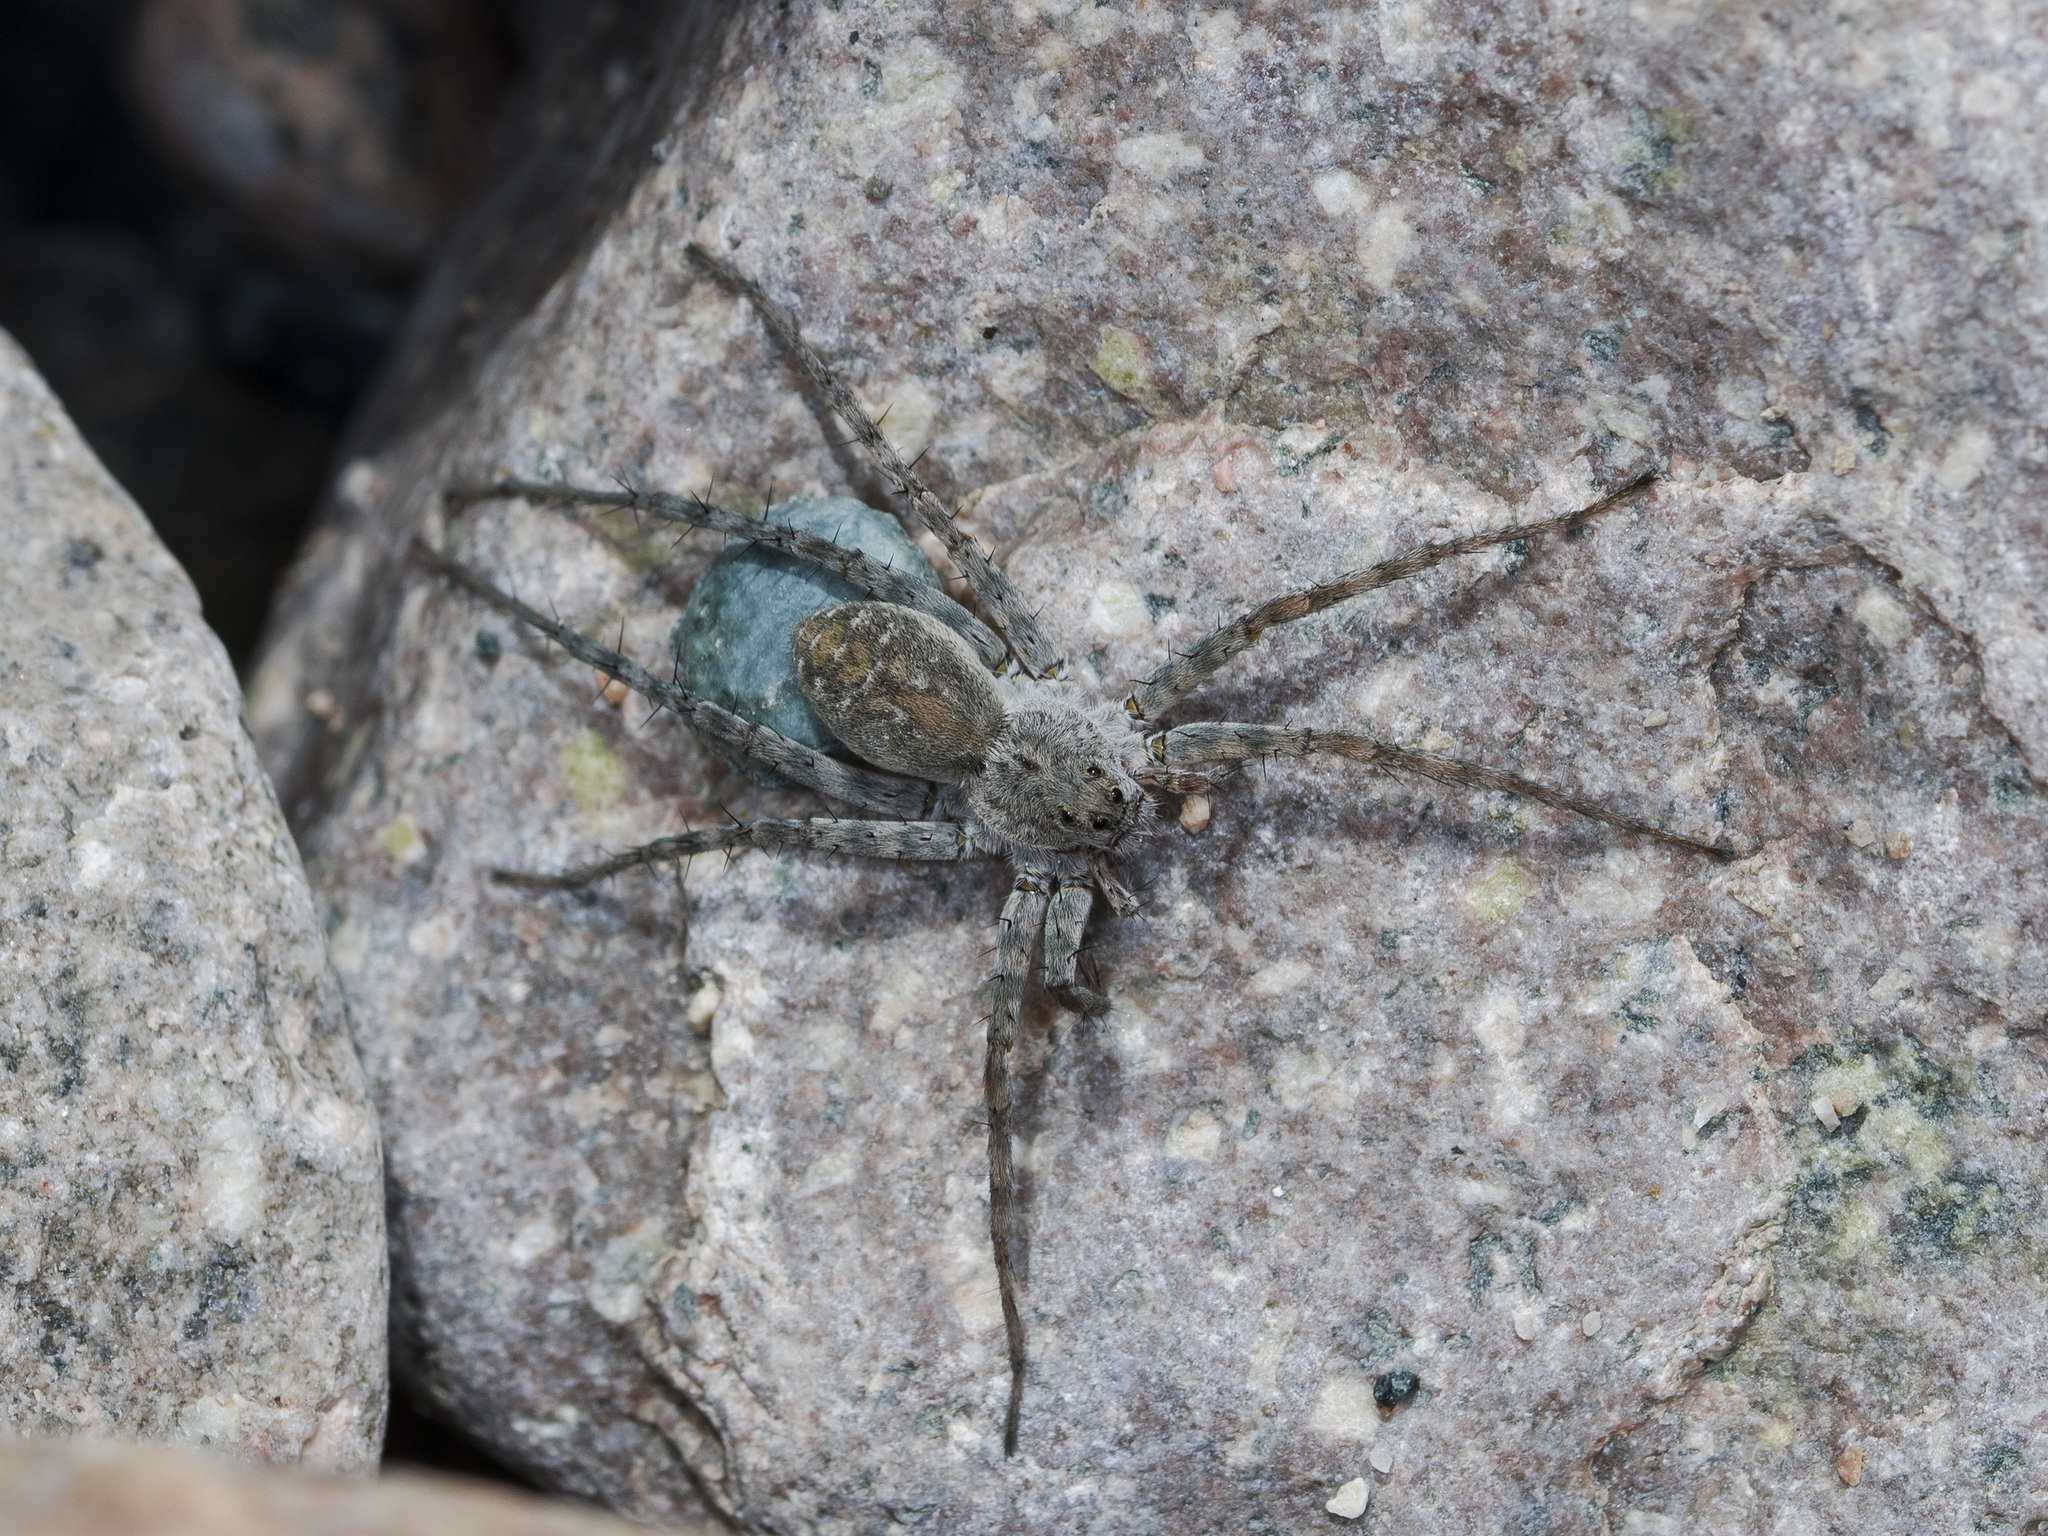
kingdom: Animalia
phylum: Arthropoda
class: Arachnida
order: Araneae
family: Lycosidae
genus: Pardosa
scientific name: Pardosa falcata
